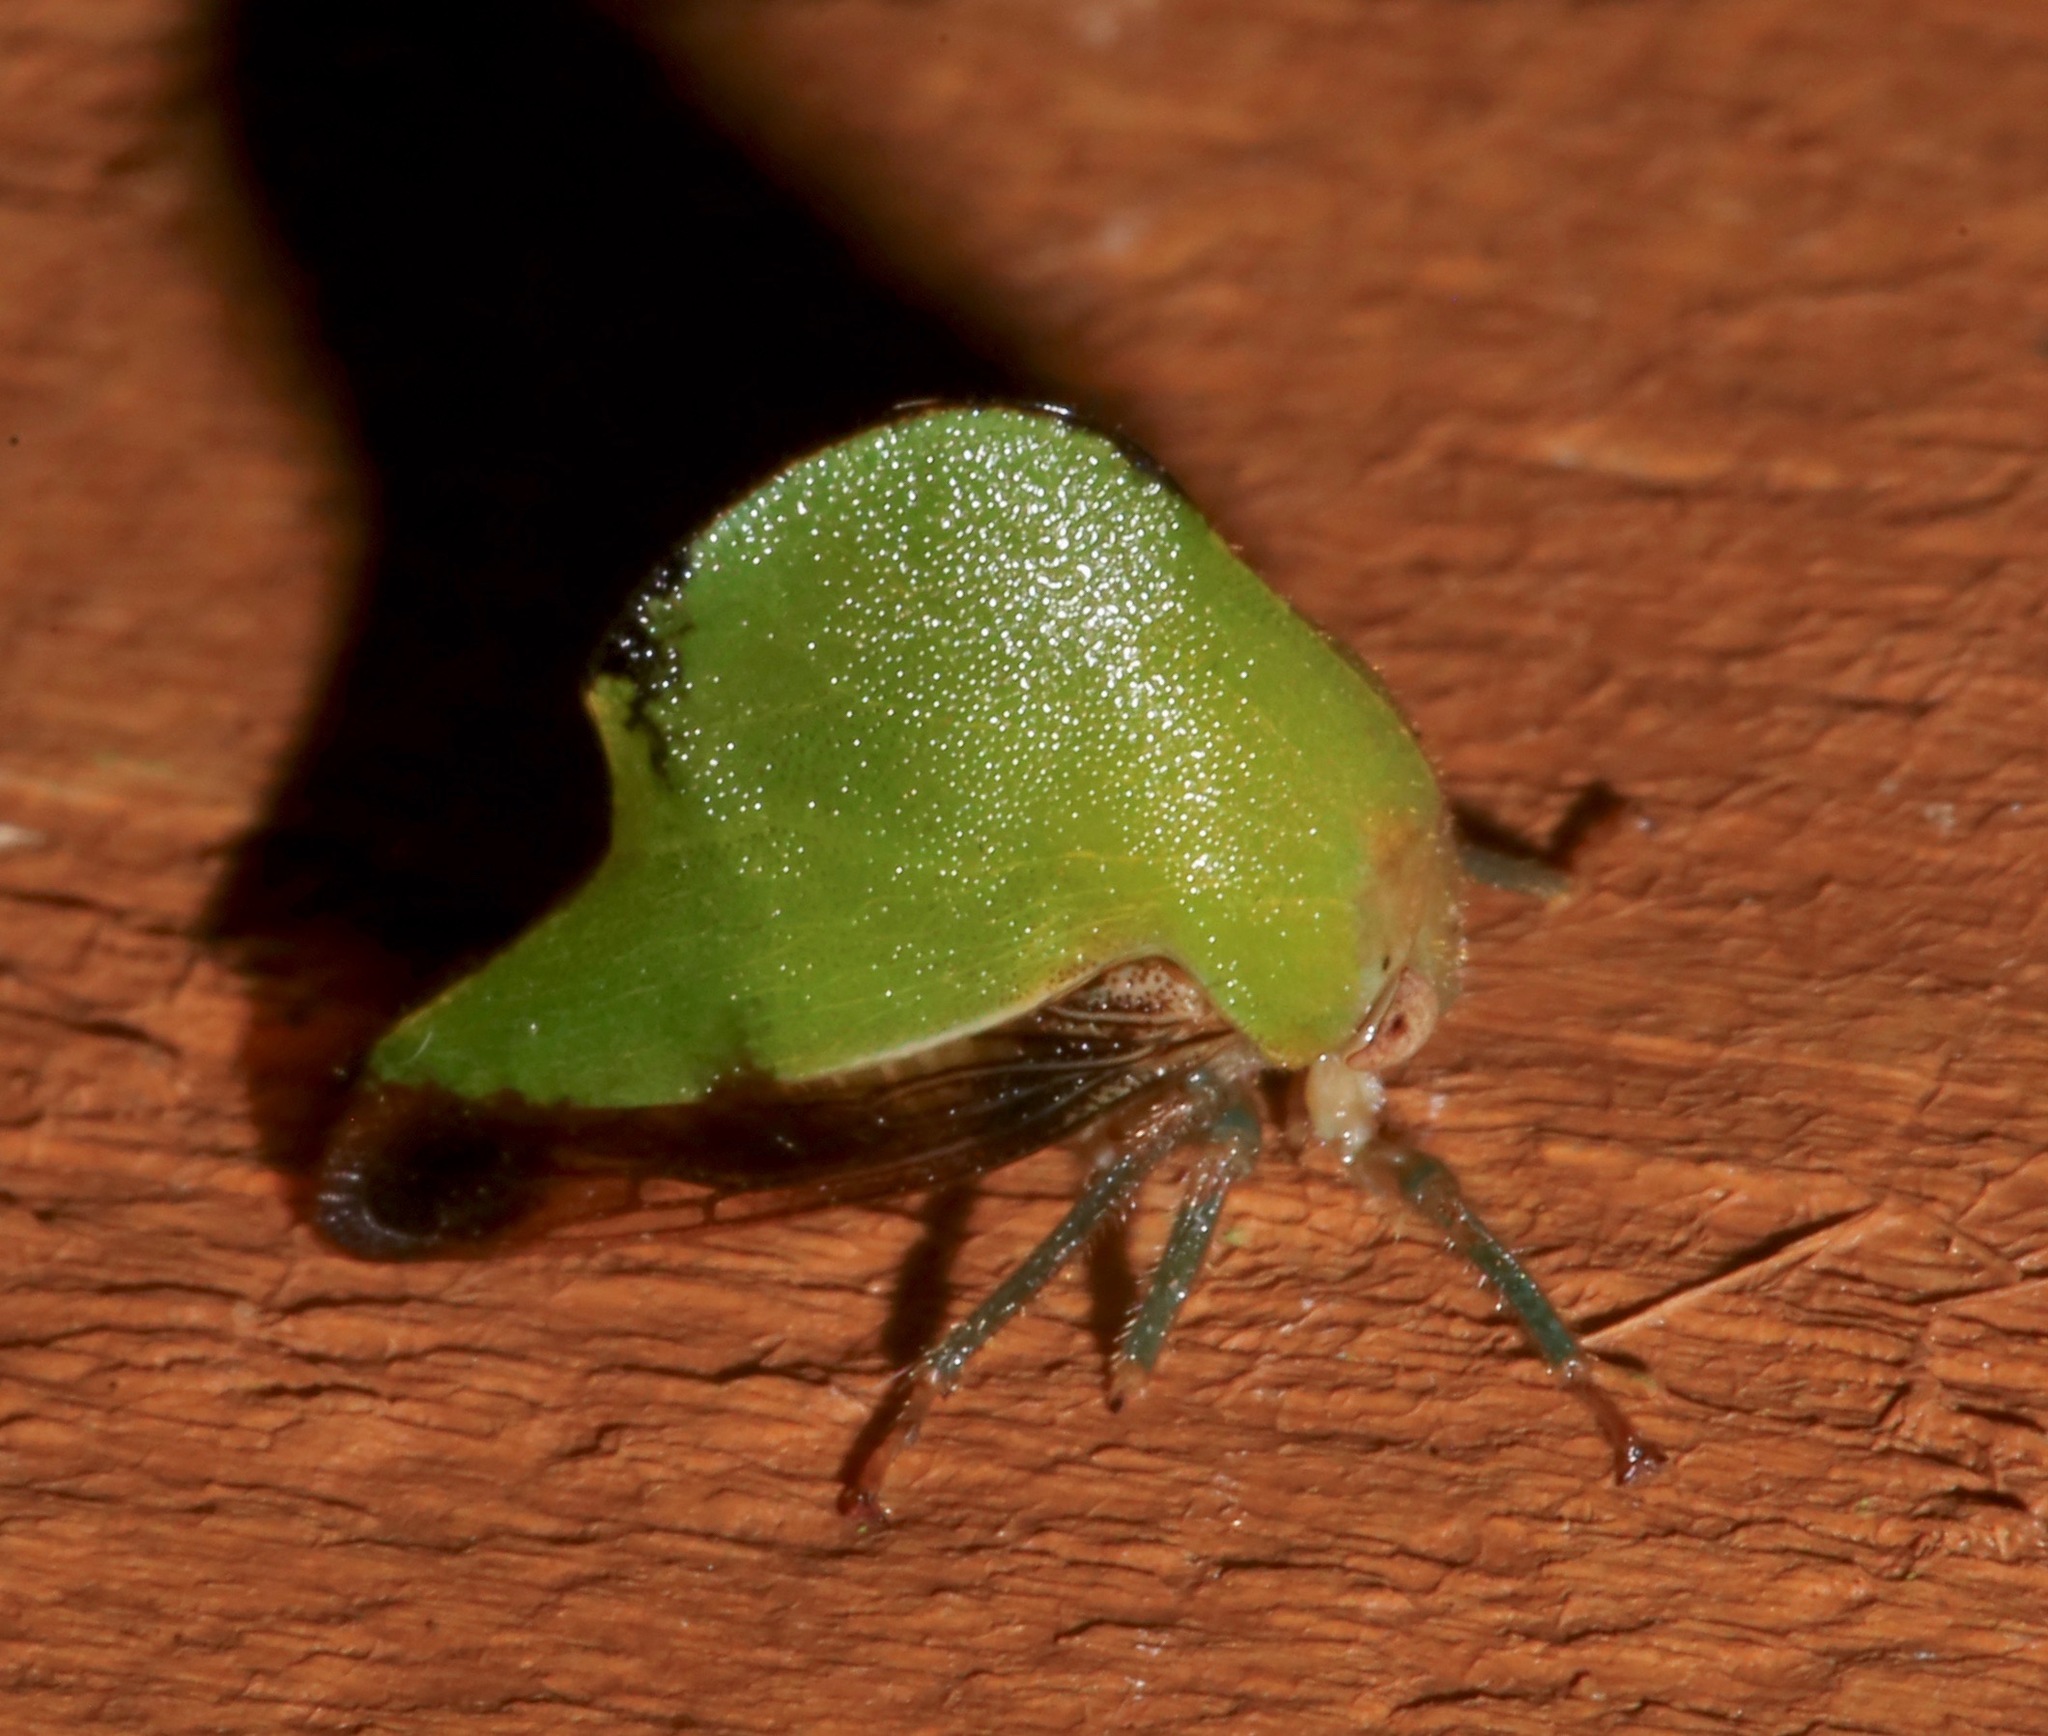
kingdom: Animalia
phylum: Arthropoda
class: Insecta
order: Hemiptera
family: Membracidae
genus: Helonica
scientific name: Helonica excelsa
